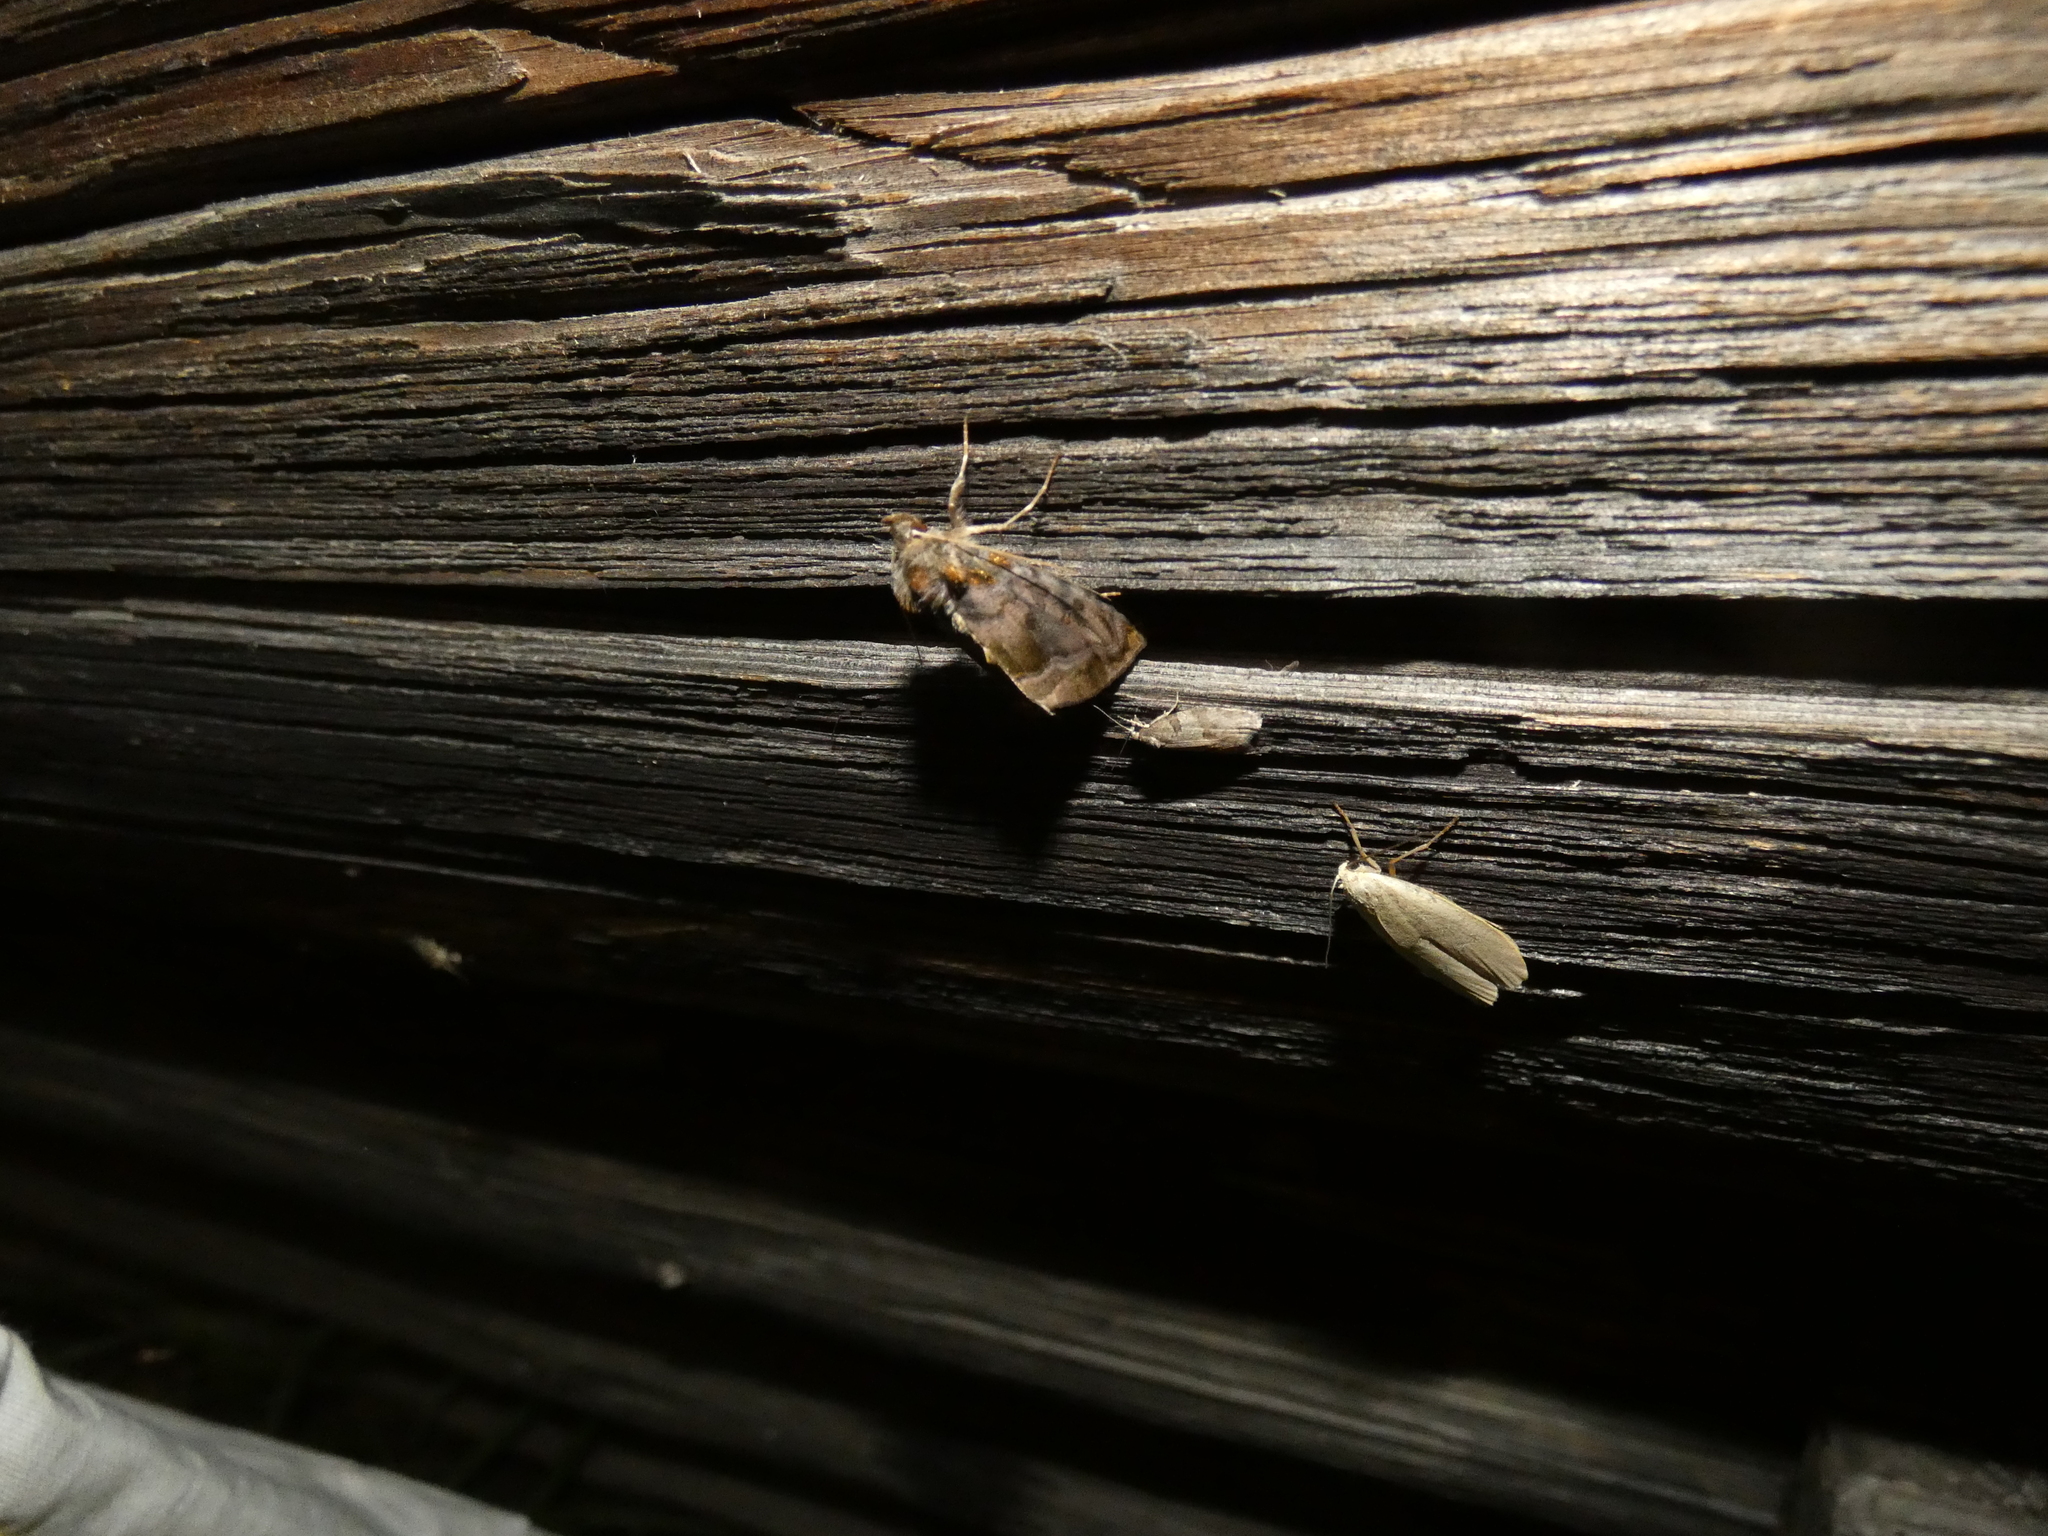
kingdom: Animalia
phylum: Arthropoda
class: Insecta
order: Lepidoptera
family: Noctuidae
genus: Lamprotes
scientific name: Lamprotes caureum
